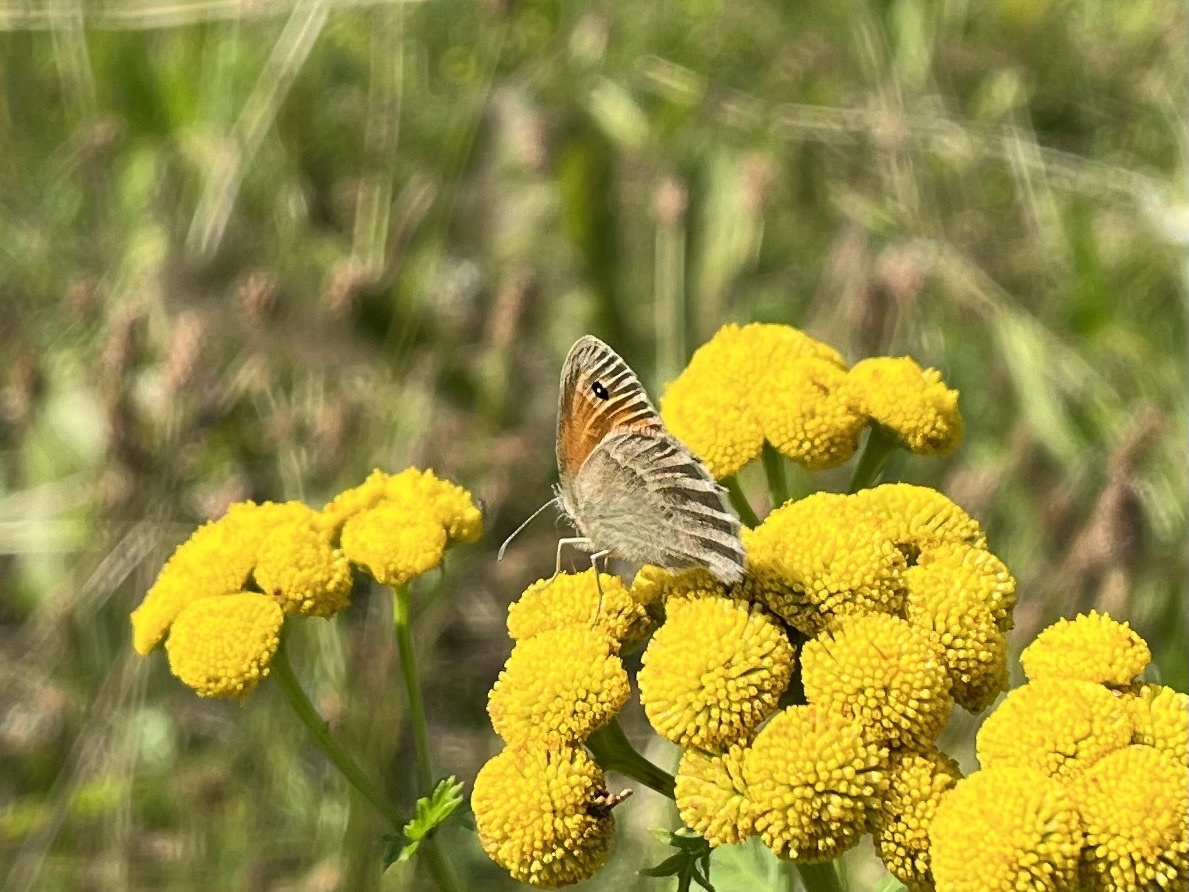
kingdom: Animalia
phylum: Arthropoda
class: Insecta
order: Lepidoptera
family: Nymphalidae
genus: Coenonympha
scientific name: Coenonympha pamphilus
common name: Small heath
